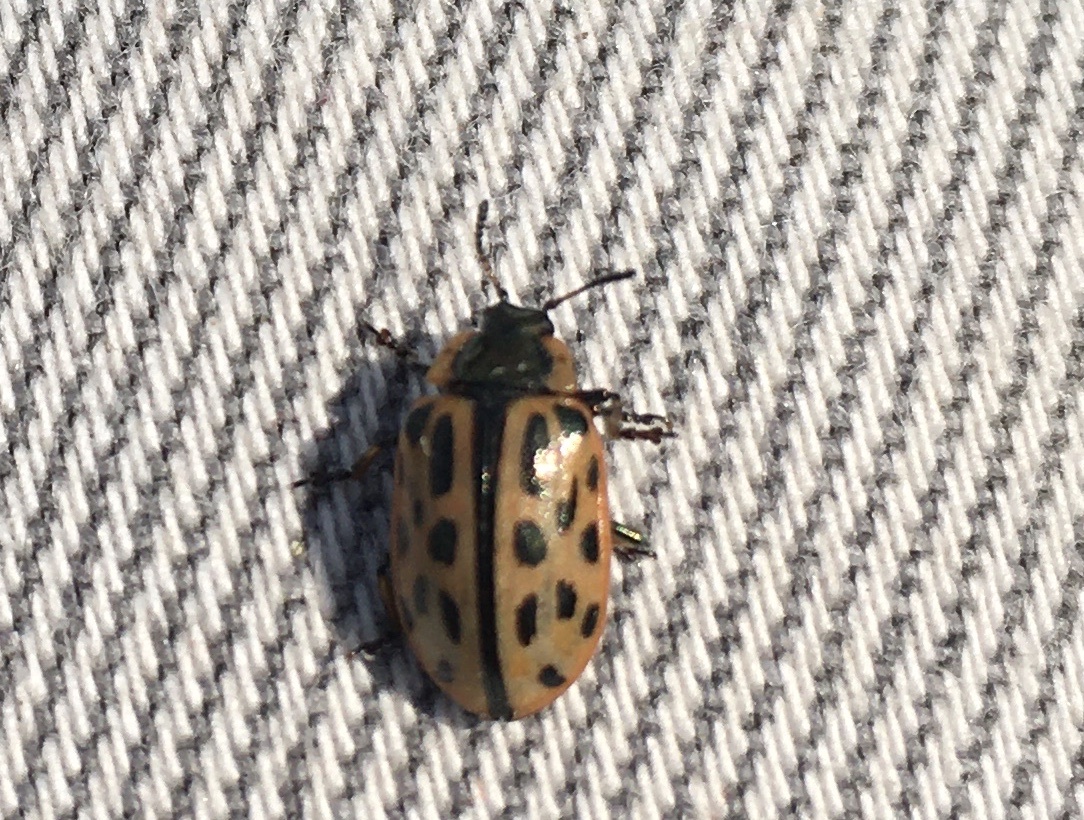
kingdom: Animalia
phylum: Arthropoda
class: Insecta
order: Coleoptera
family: Chrysomelidae
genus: Chrysomela
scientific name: Chrysomela vigintipunctata
